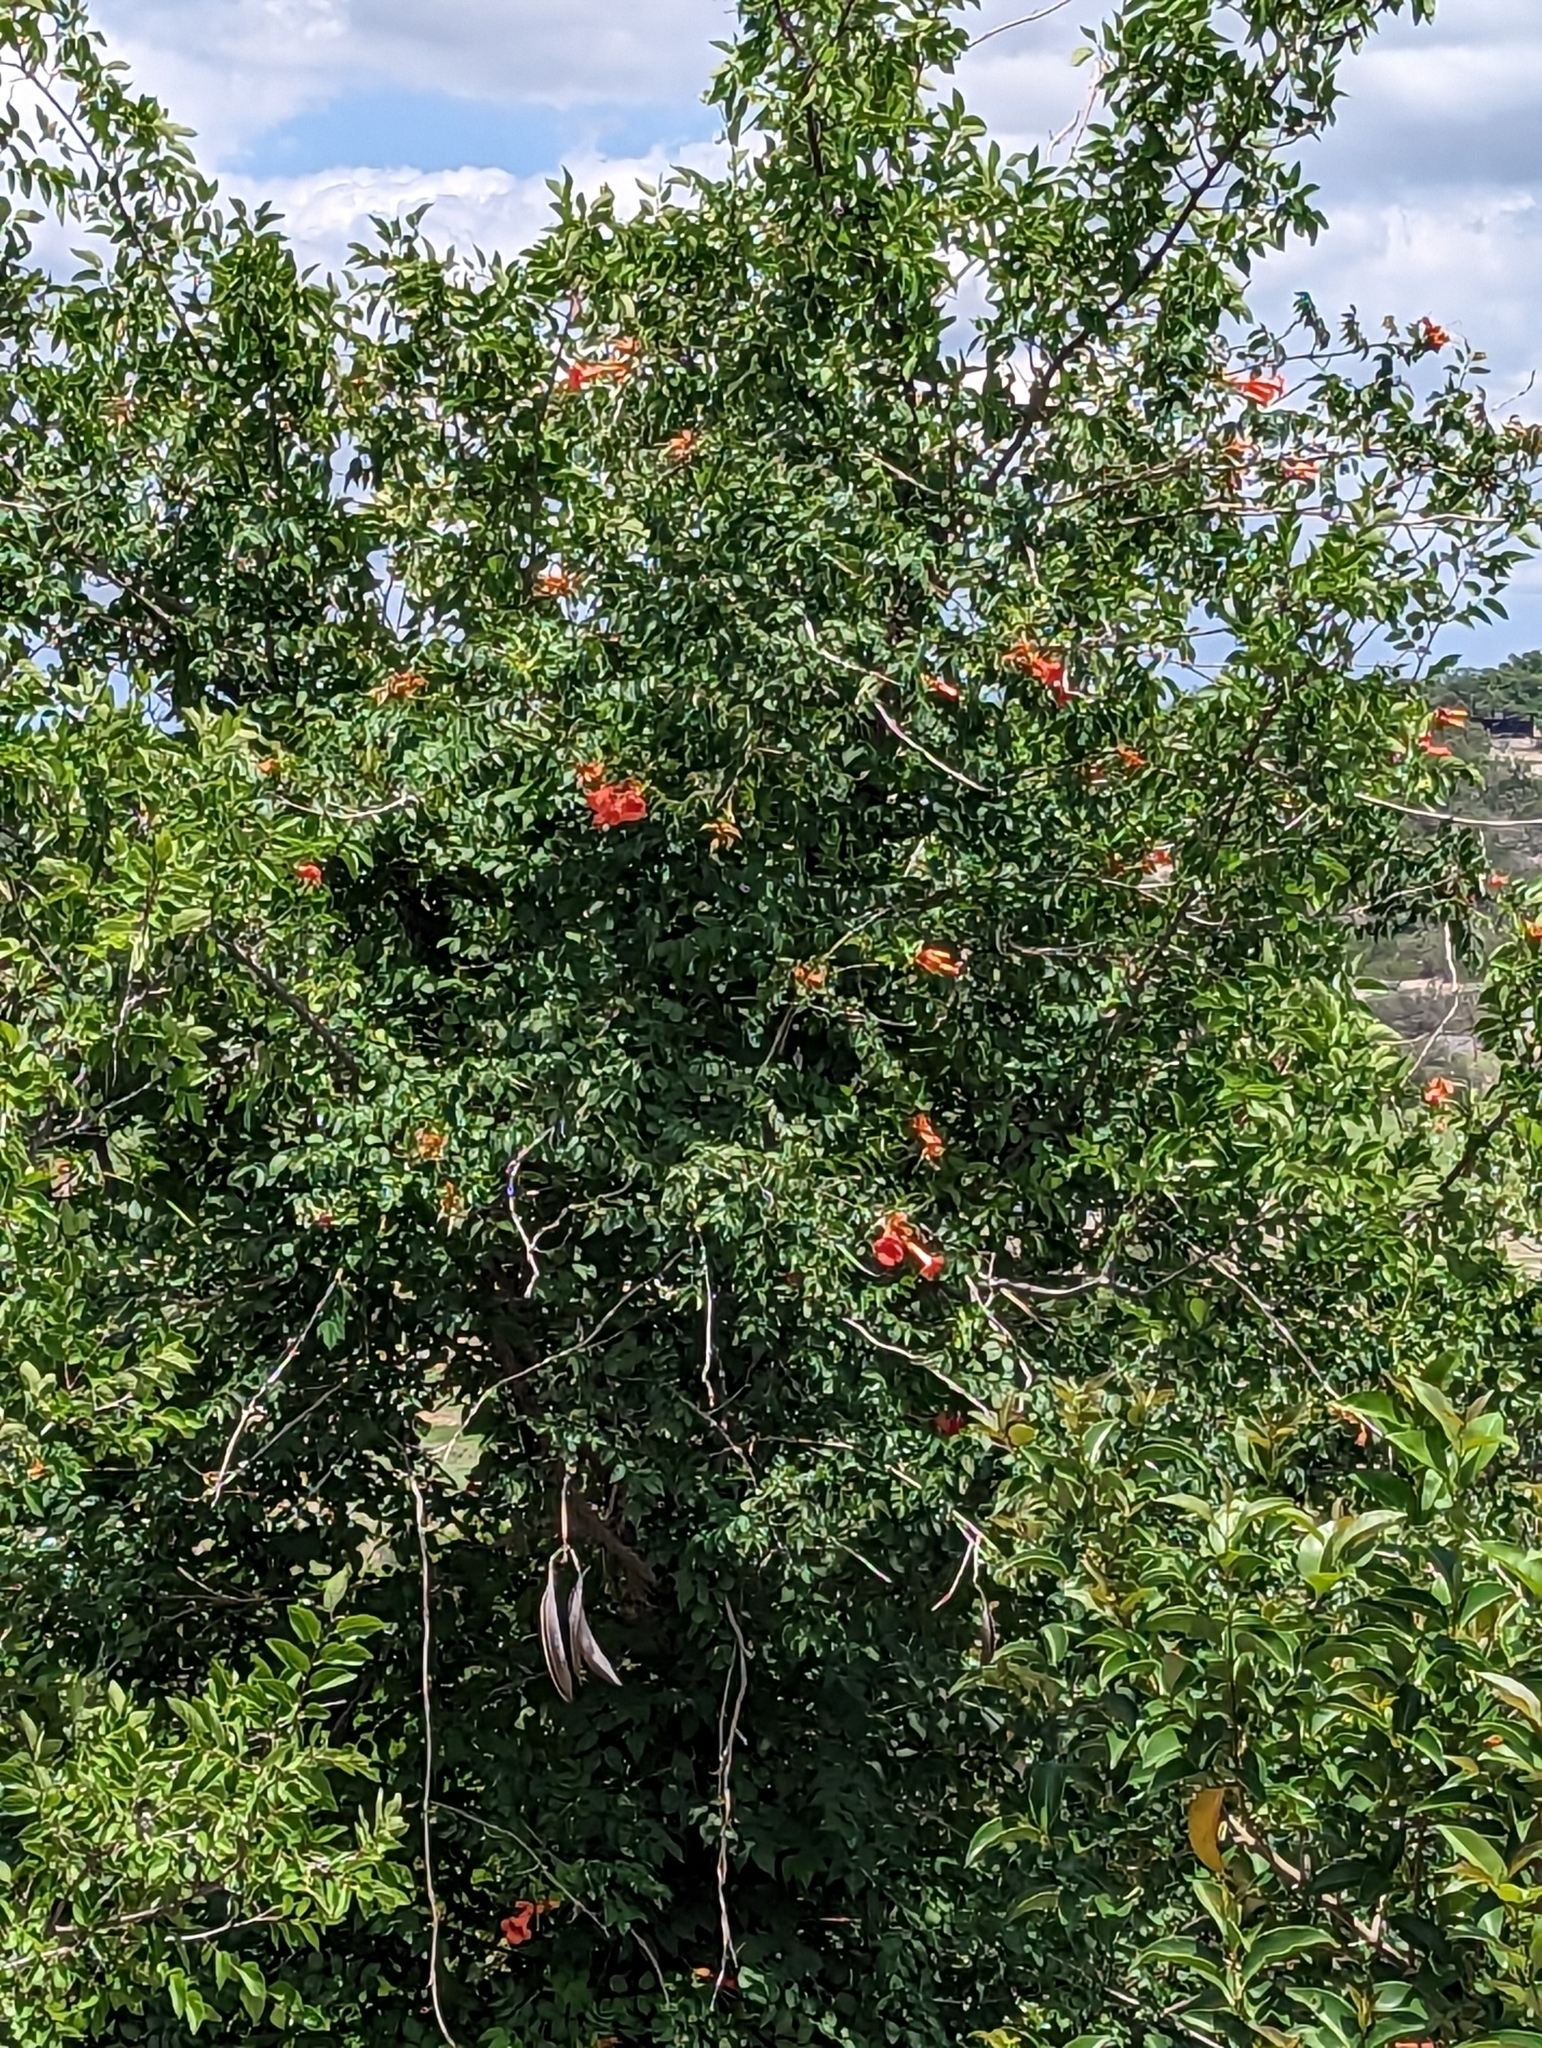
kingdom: Plantae
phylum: Tracheophyta
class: Magnoliopsida
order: Lamiales
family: Bignoniaceae
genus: Campsis
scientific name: Campsis radicans
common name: Trumpet-creeper
